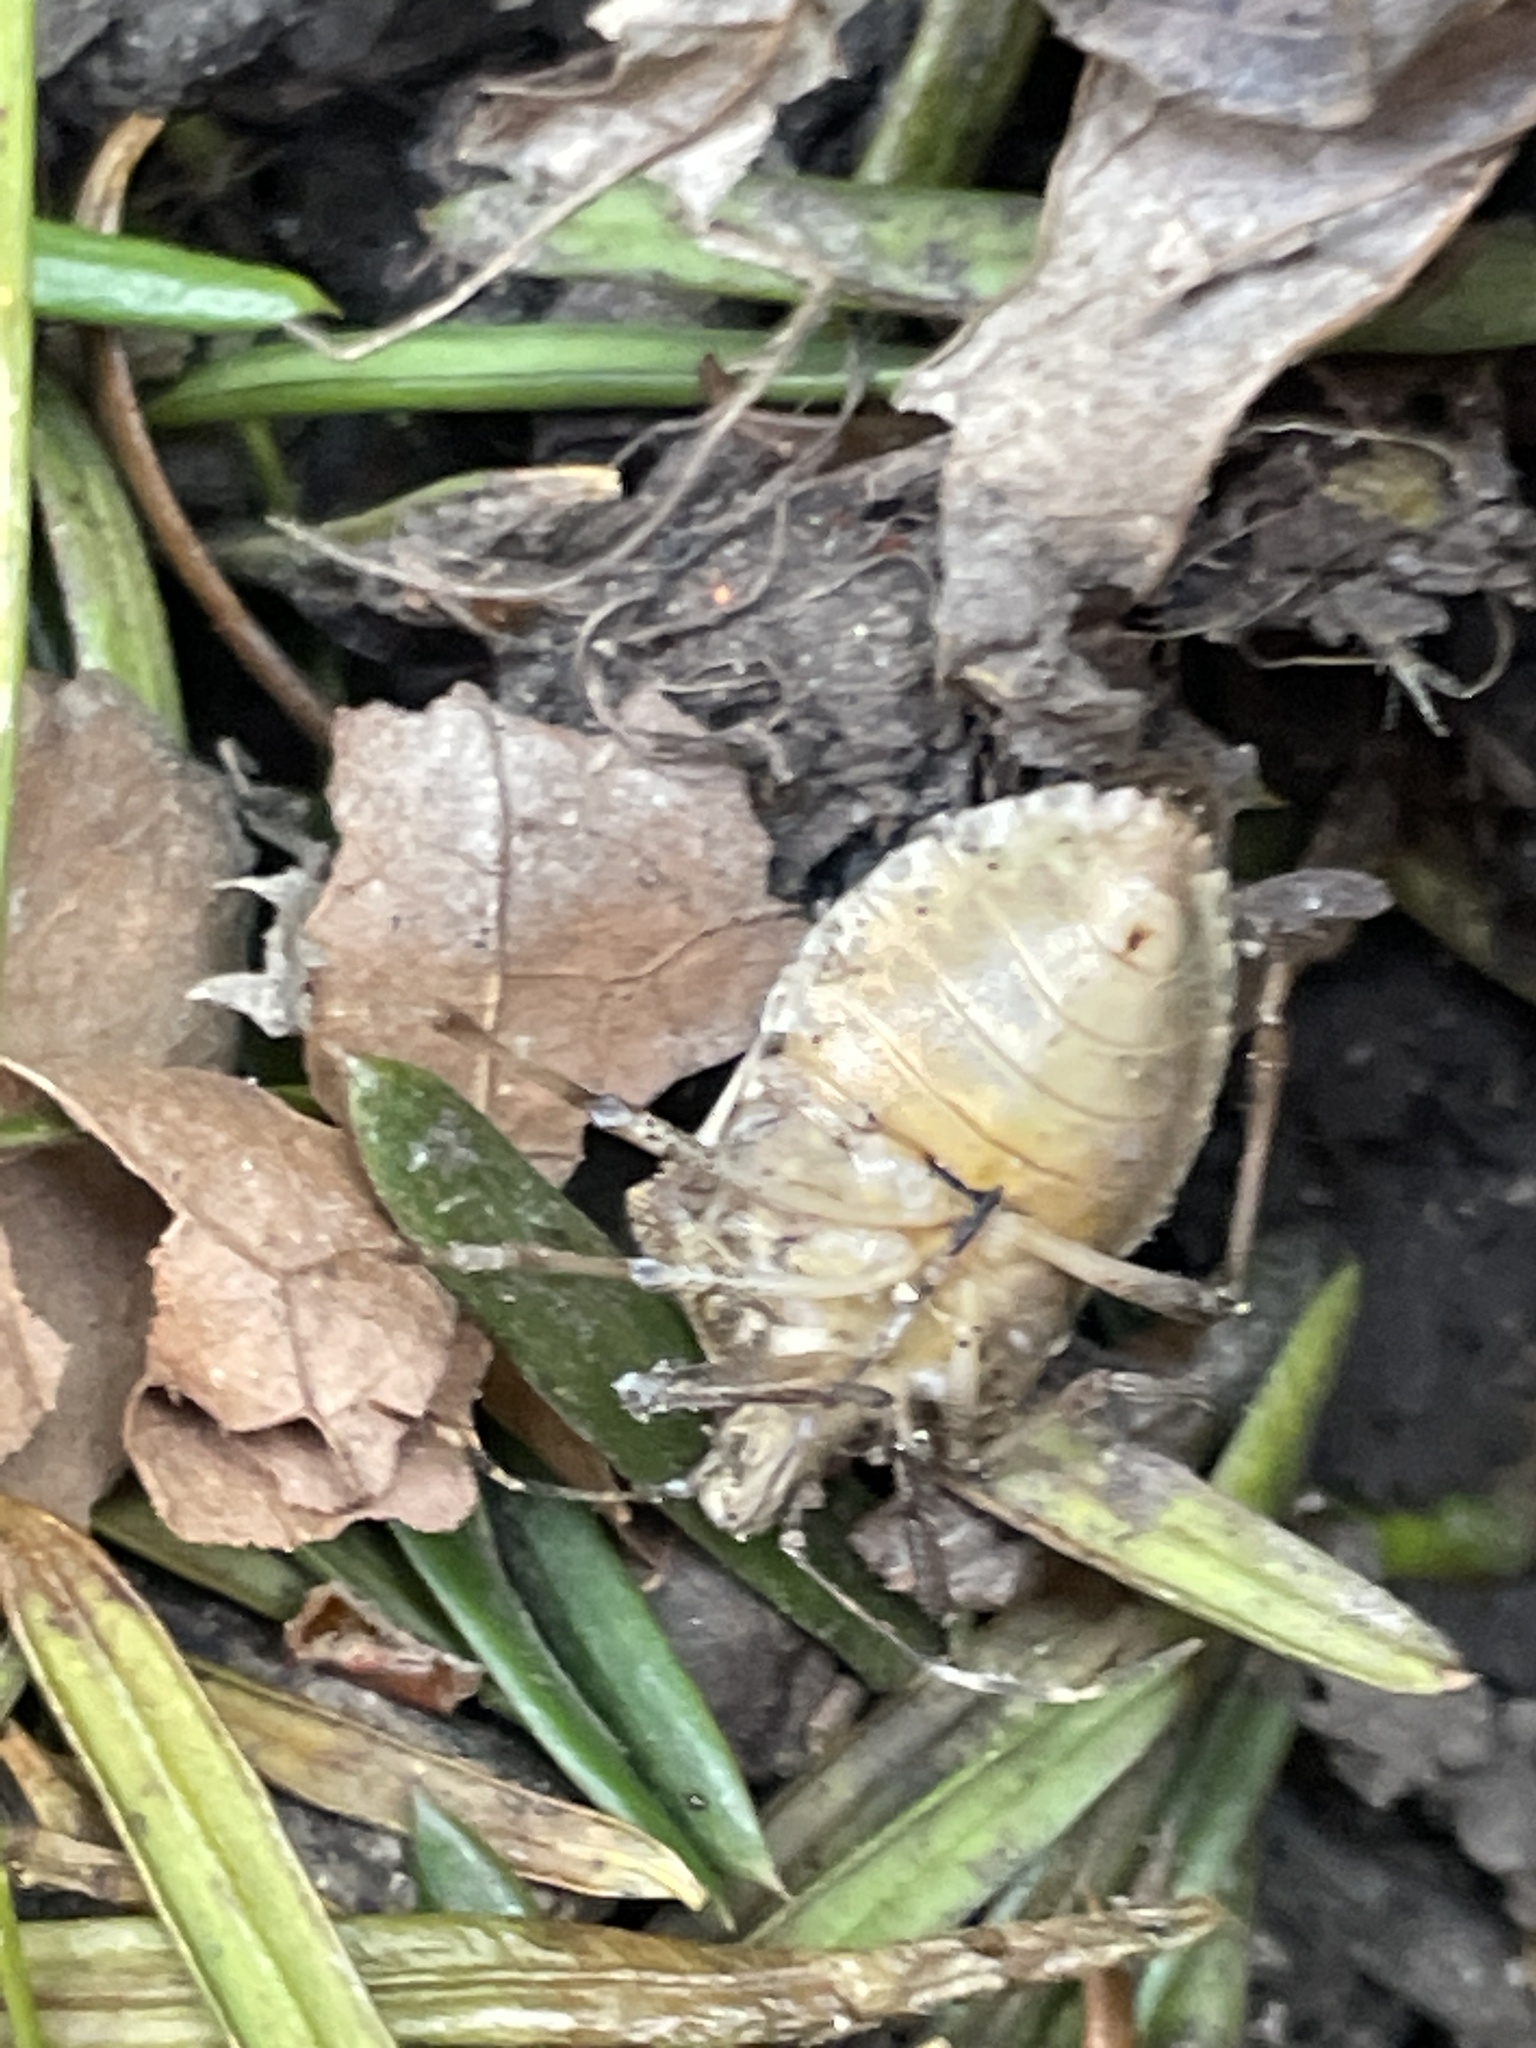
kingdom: Animalia
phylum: Arthropoda
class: Insecta
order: Hemiptera
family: Pentatomidae
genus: Halyomorpha
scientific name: Halyomorpha halys
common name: Brown marmorated stink bug
